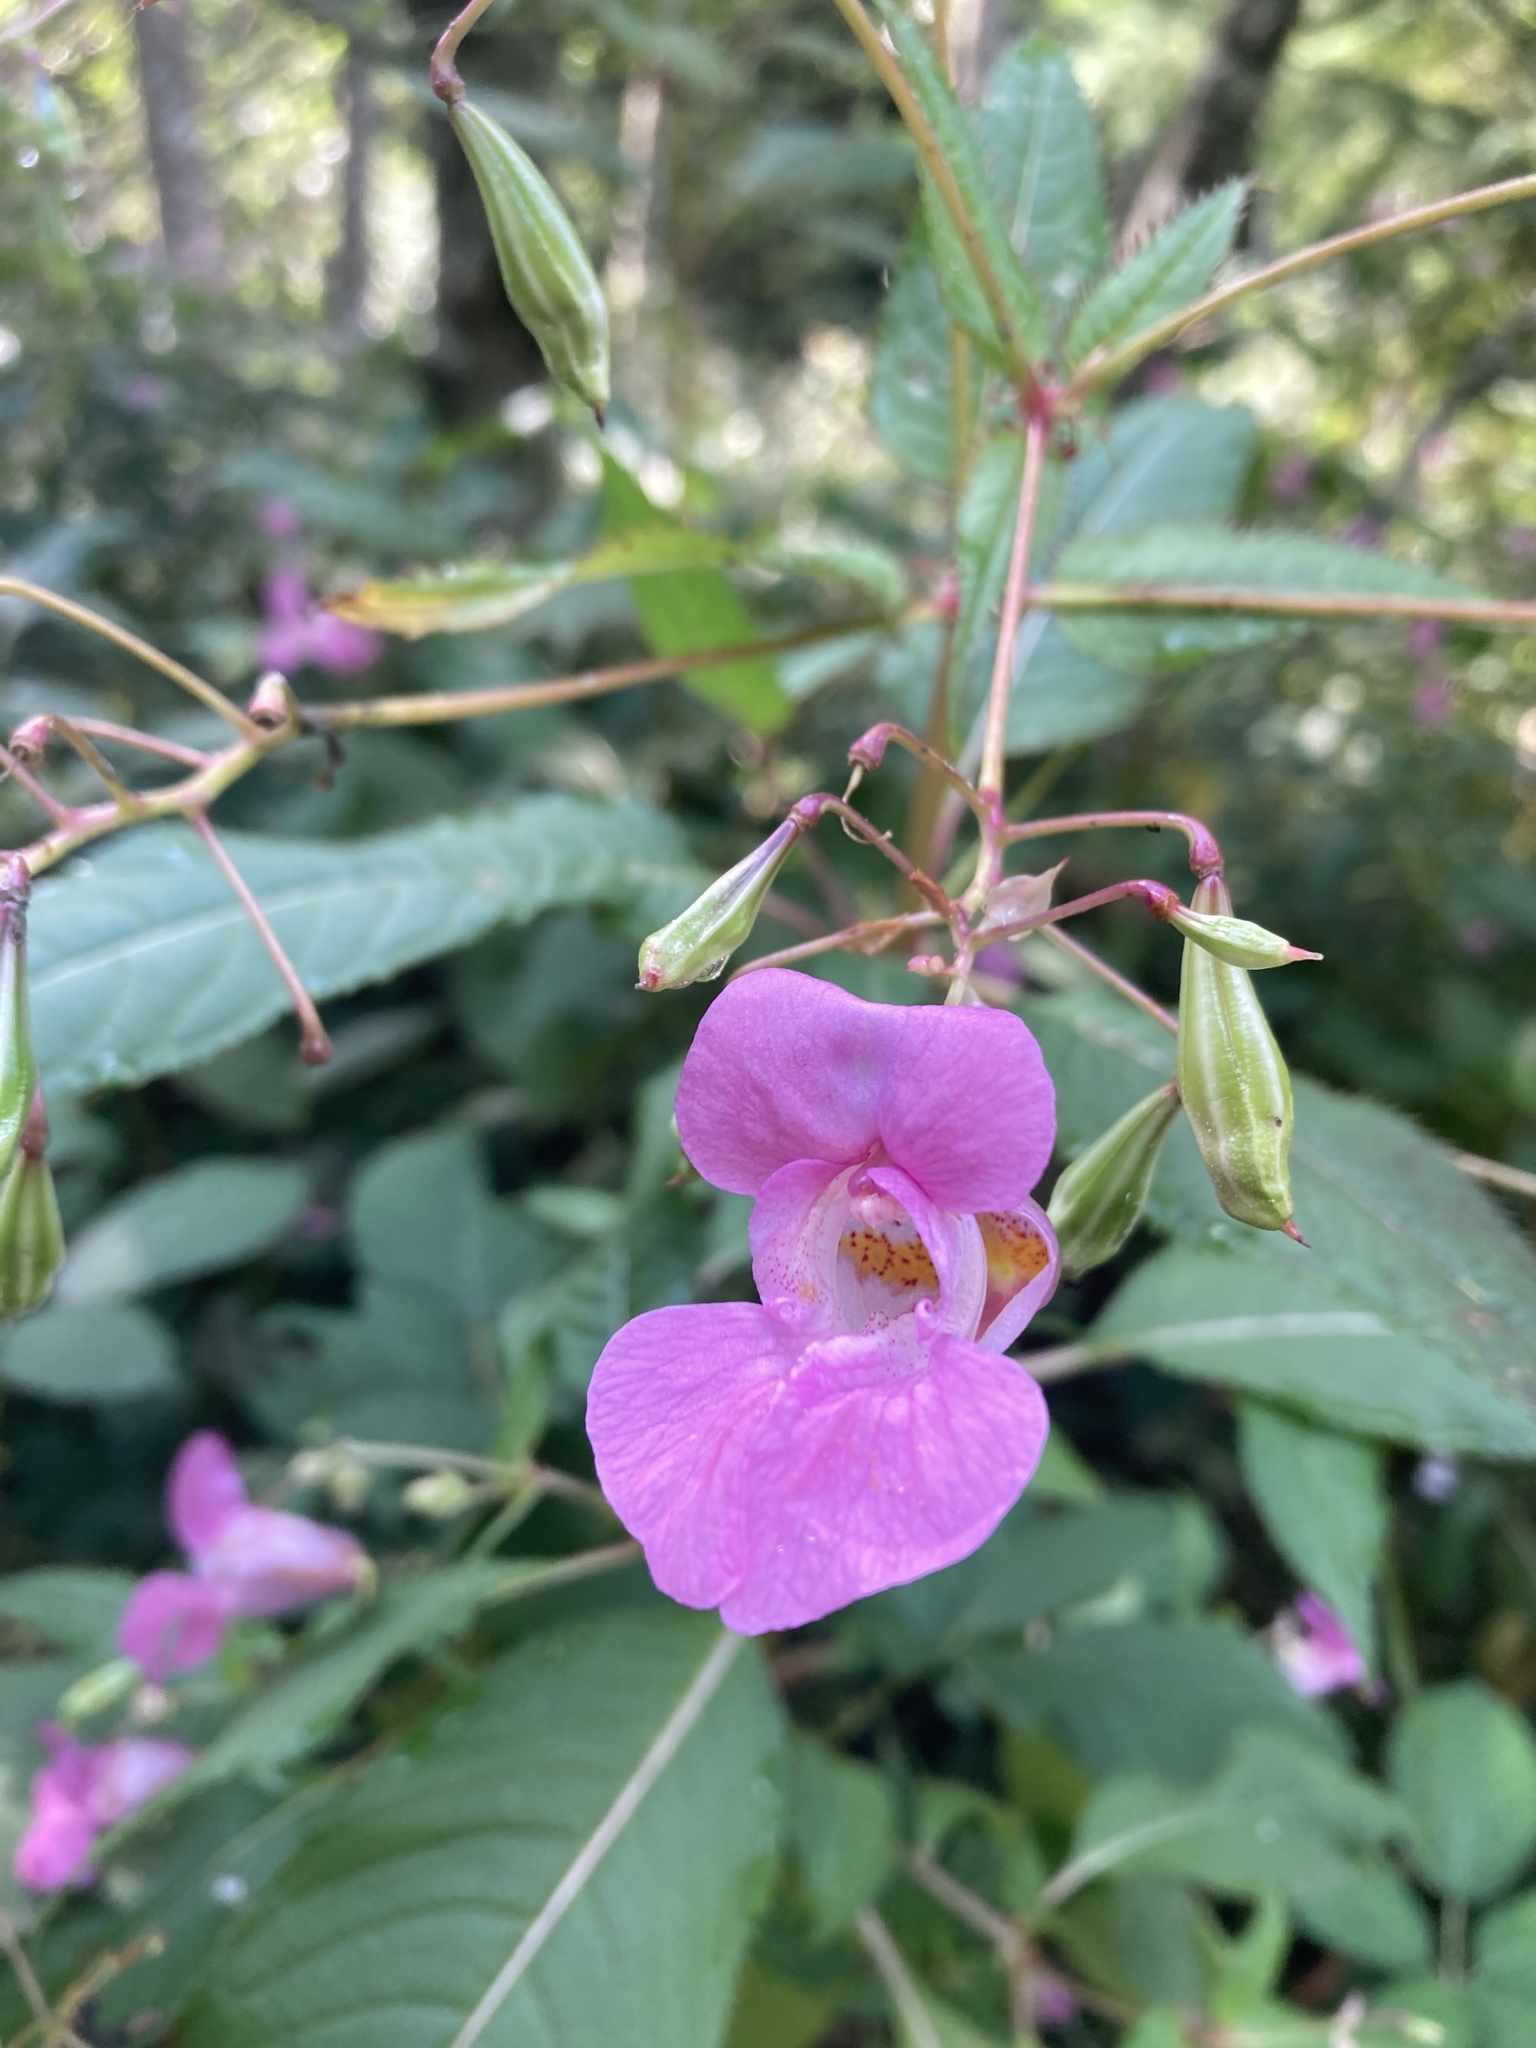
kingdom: Plantae
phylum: Tracheophyta
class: Magnoliopsida
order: Ericales
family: Balsaminaceae
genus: Impatiens
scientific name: Impatiens glandulifera
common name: Himalayan balsam
